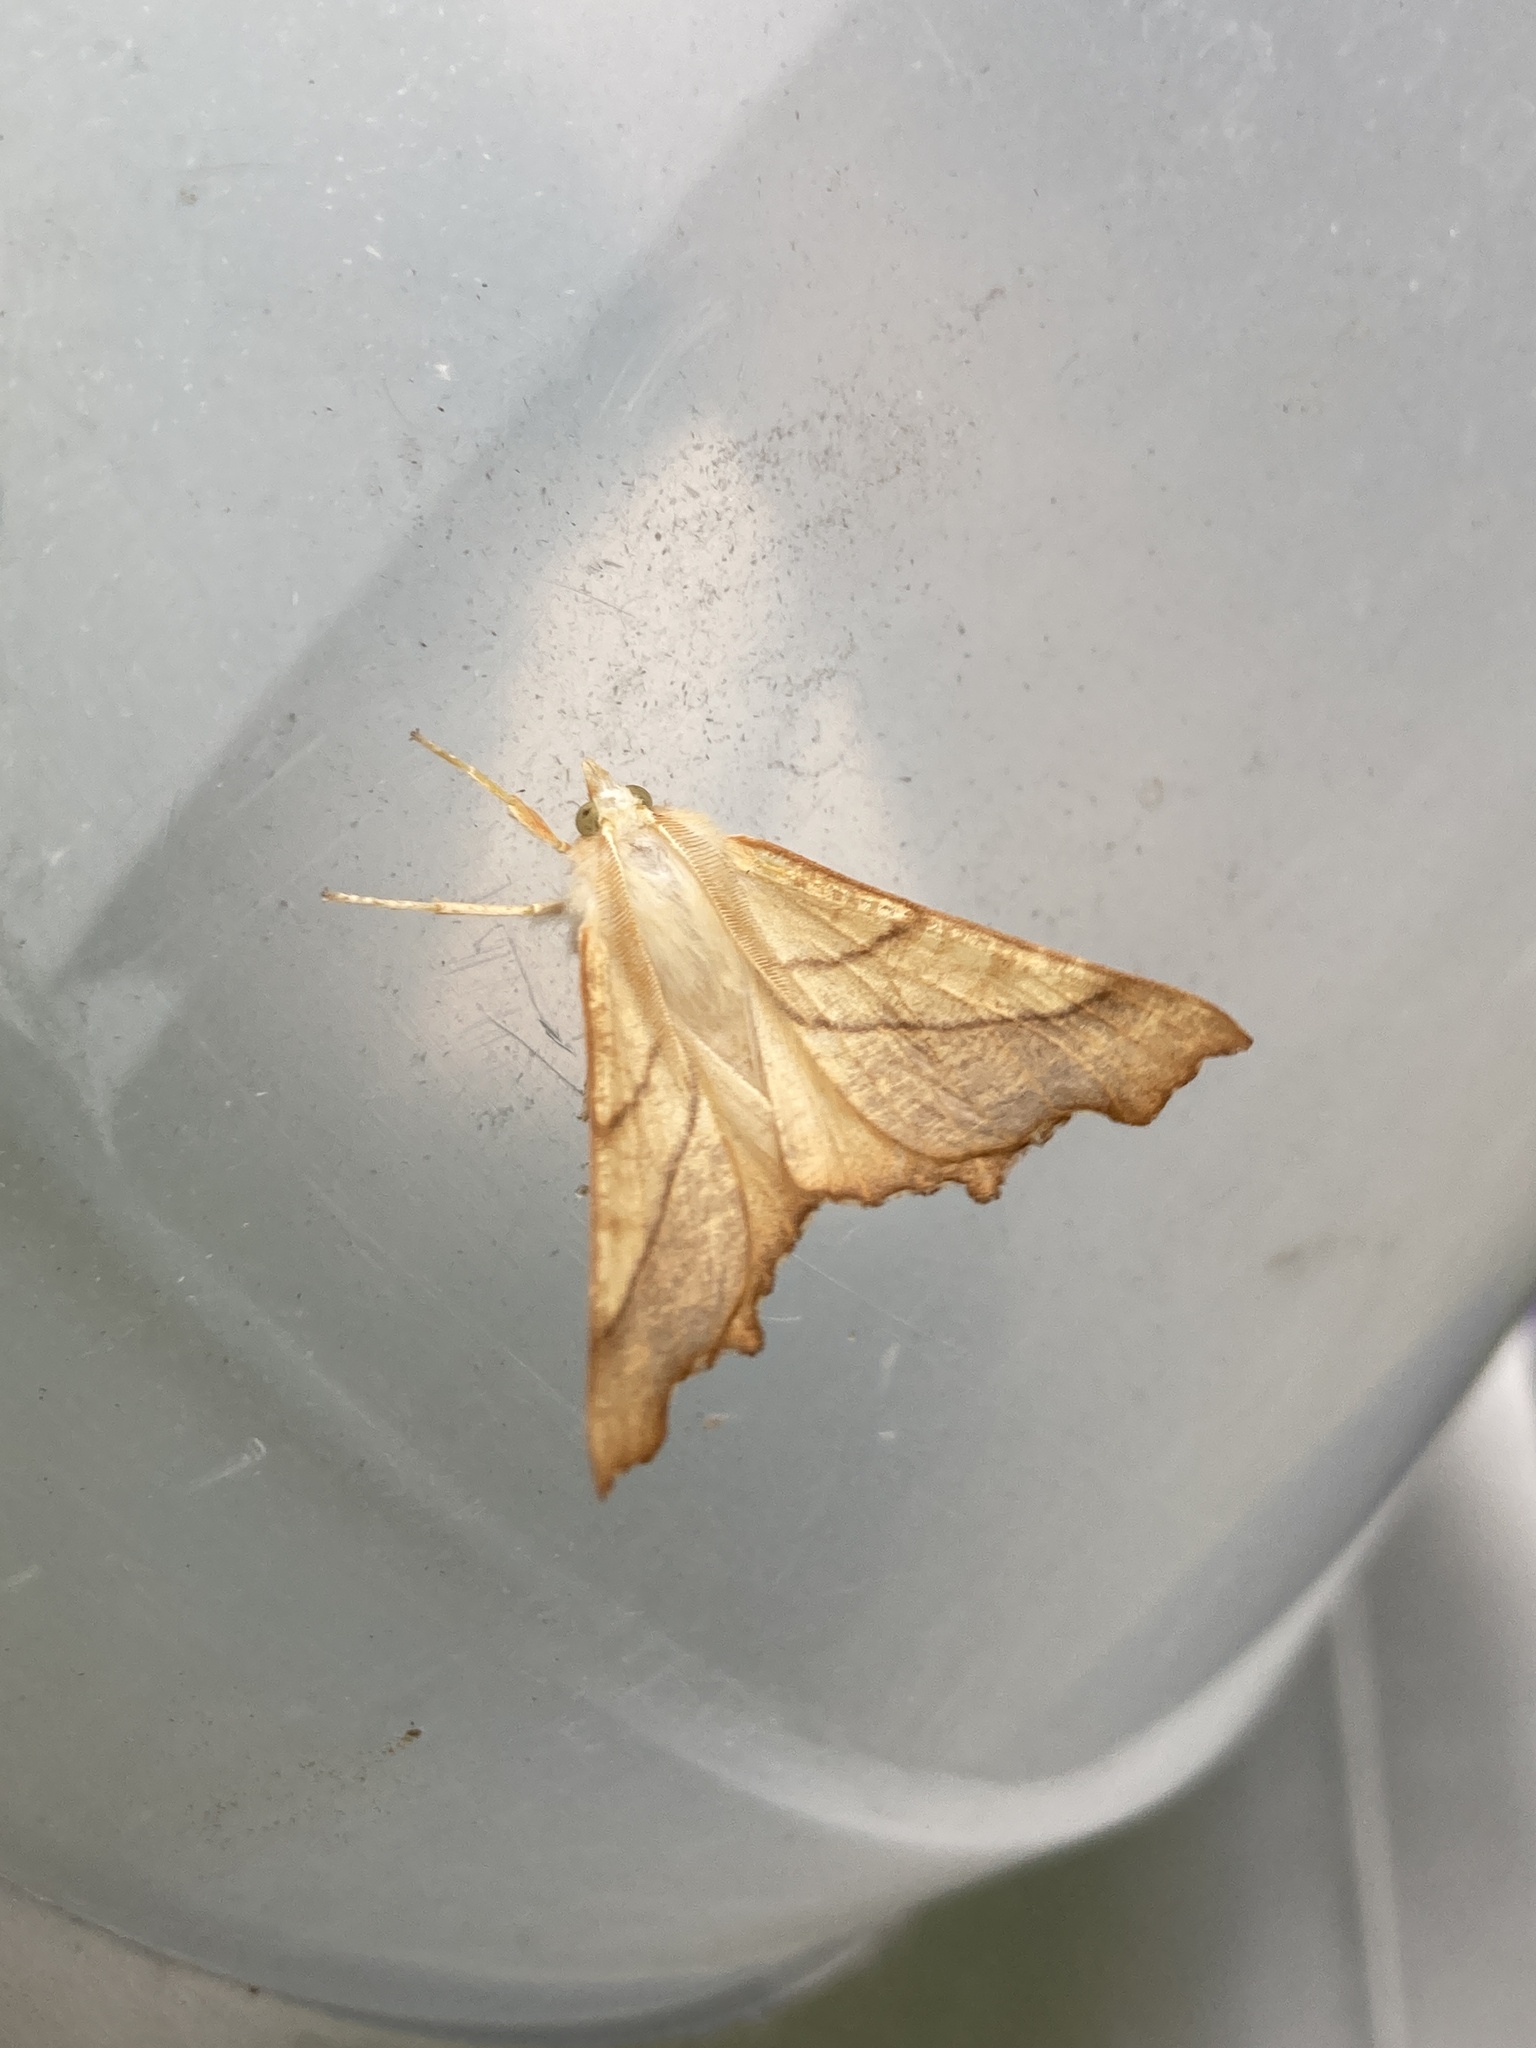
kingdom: Animalia
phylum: Arthropoda
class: Insecta
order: Lepidoptera
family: Geometridae
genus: Ennomos
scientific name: Ennomos fuscantaria
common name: Dusky thorn
